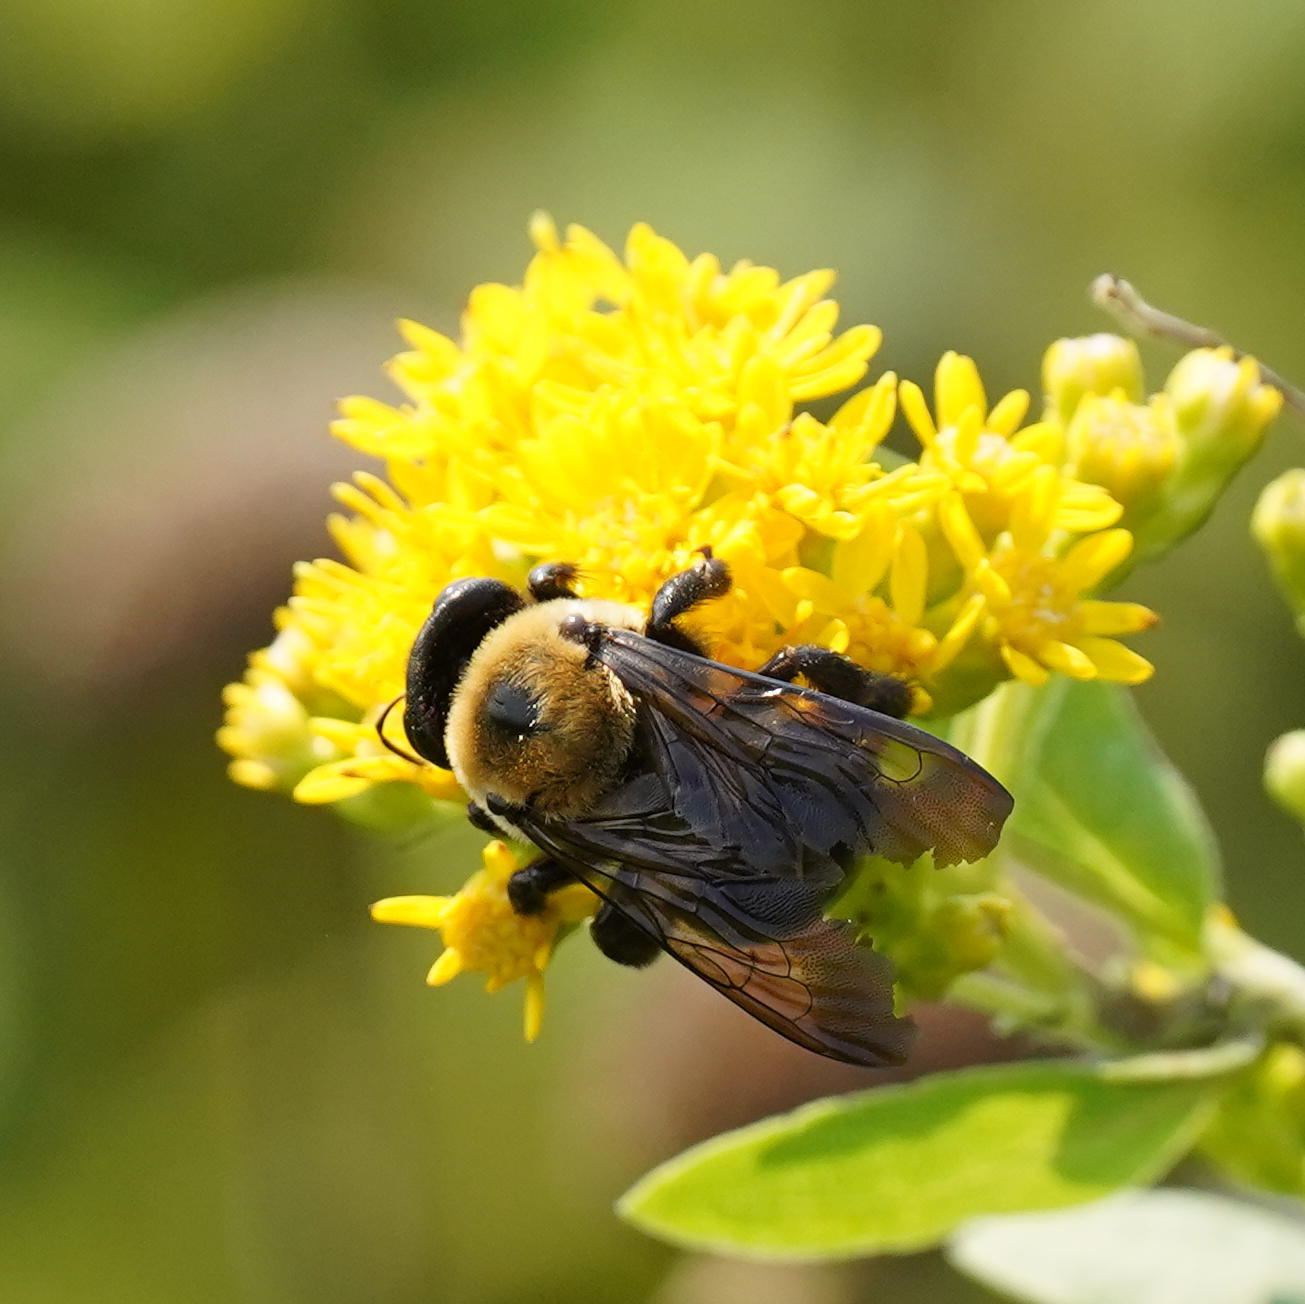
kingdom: Animalia
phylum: Arthropoda
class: Insecta
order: Hymenoptera
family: Apidae
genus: Xylocopa
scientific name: Xylocopa virginica
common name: Carpenter bee
